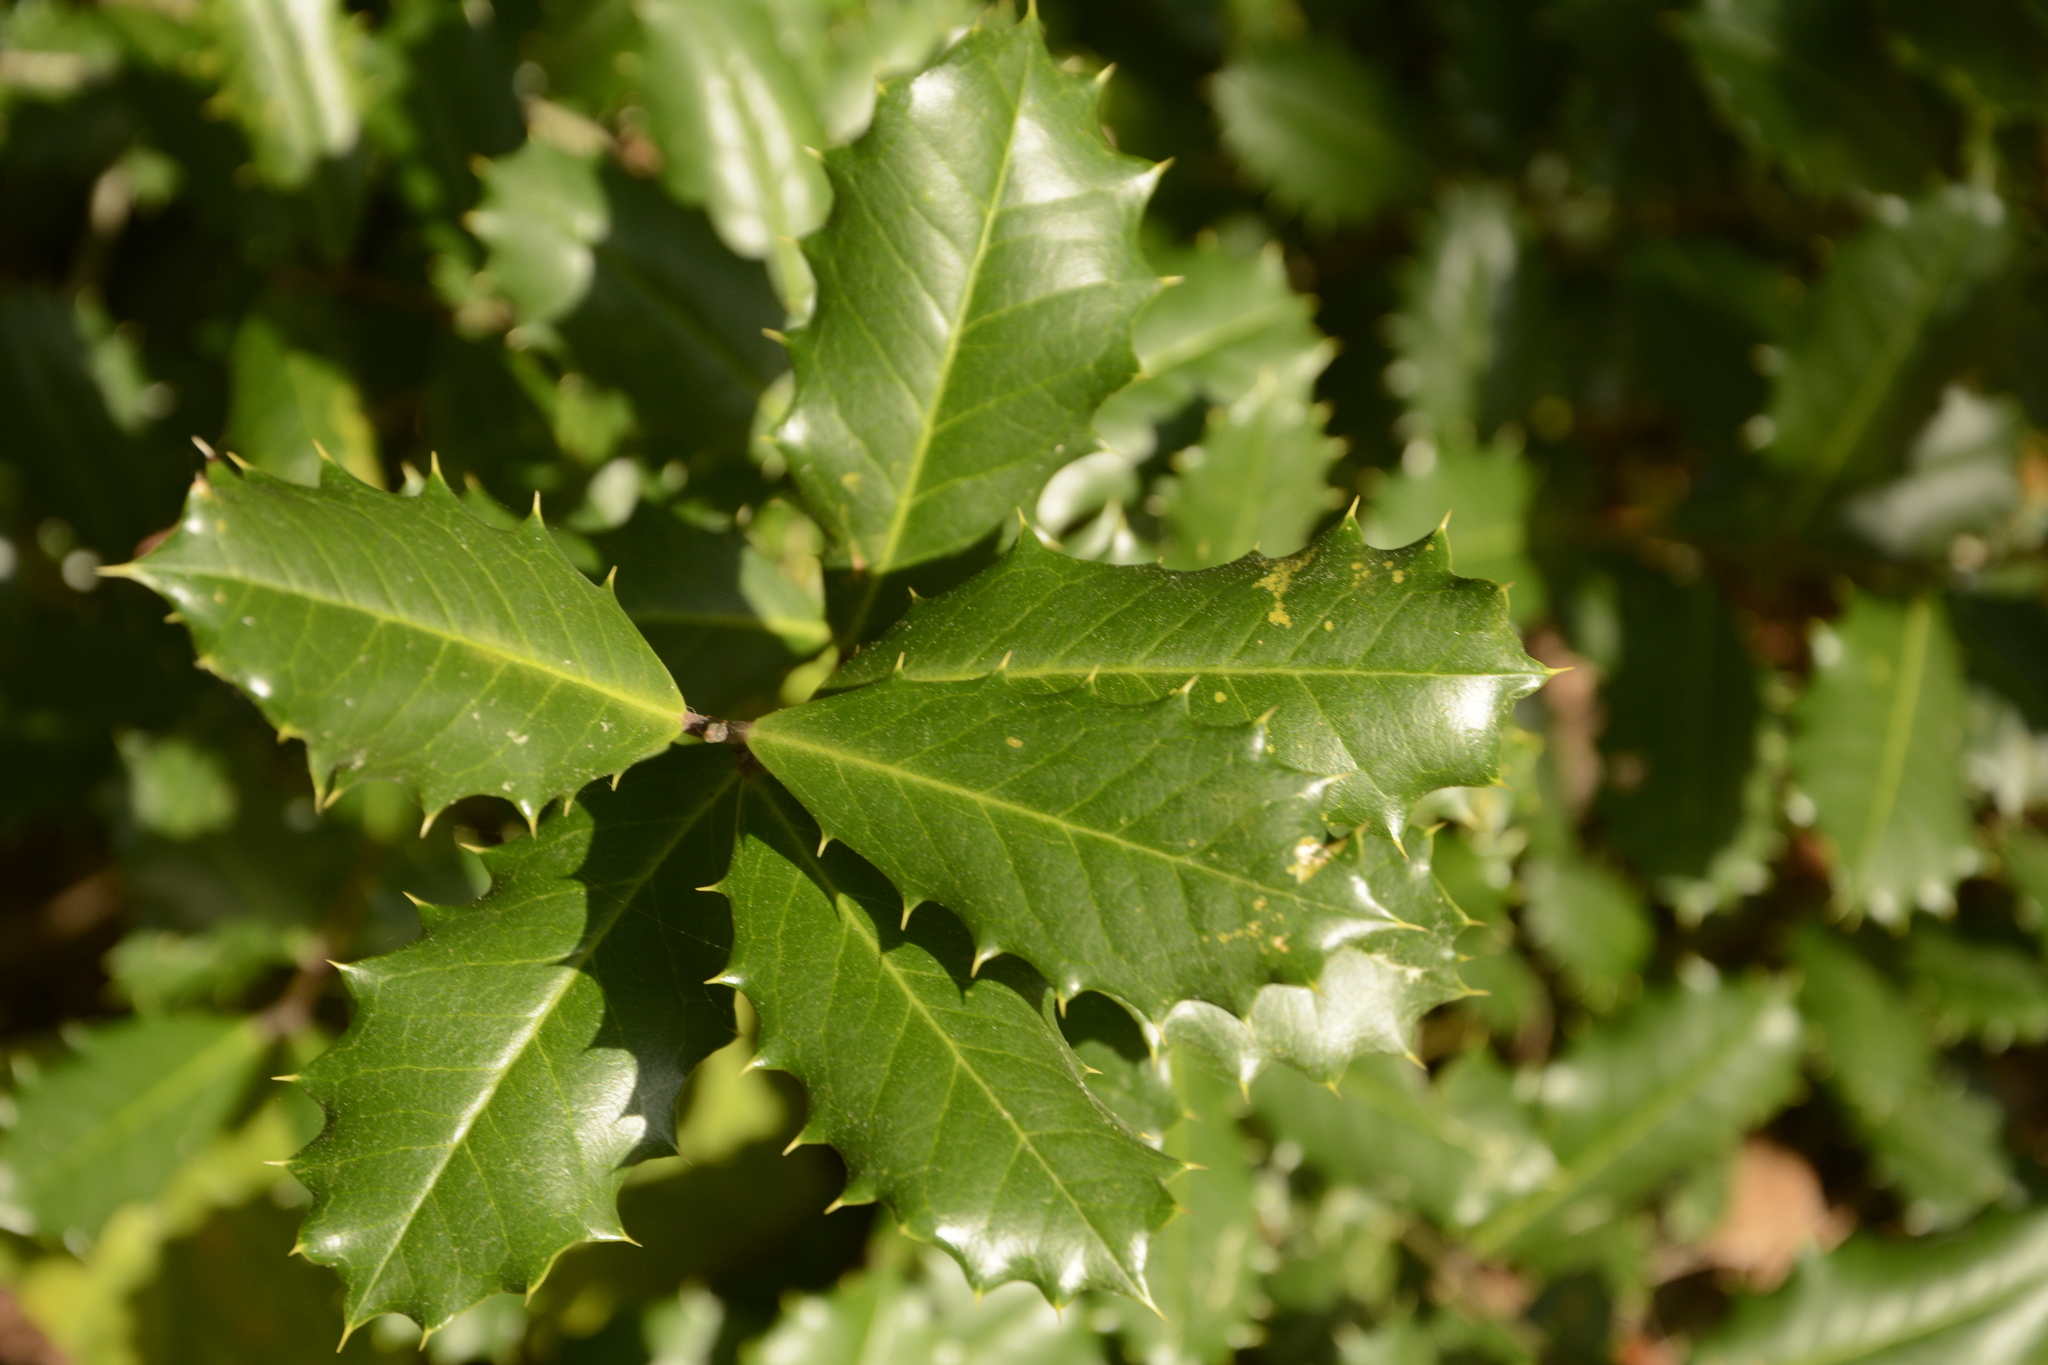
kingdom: Plantae
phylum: Tracheophyta
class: Magnoliopsida
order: Aquifoliales
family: Aquifoliaceae
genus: Ilex
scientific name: Ilex opaca
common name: American holly
